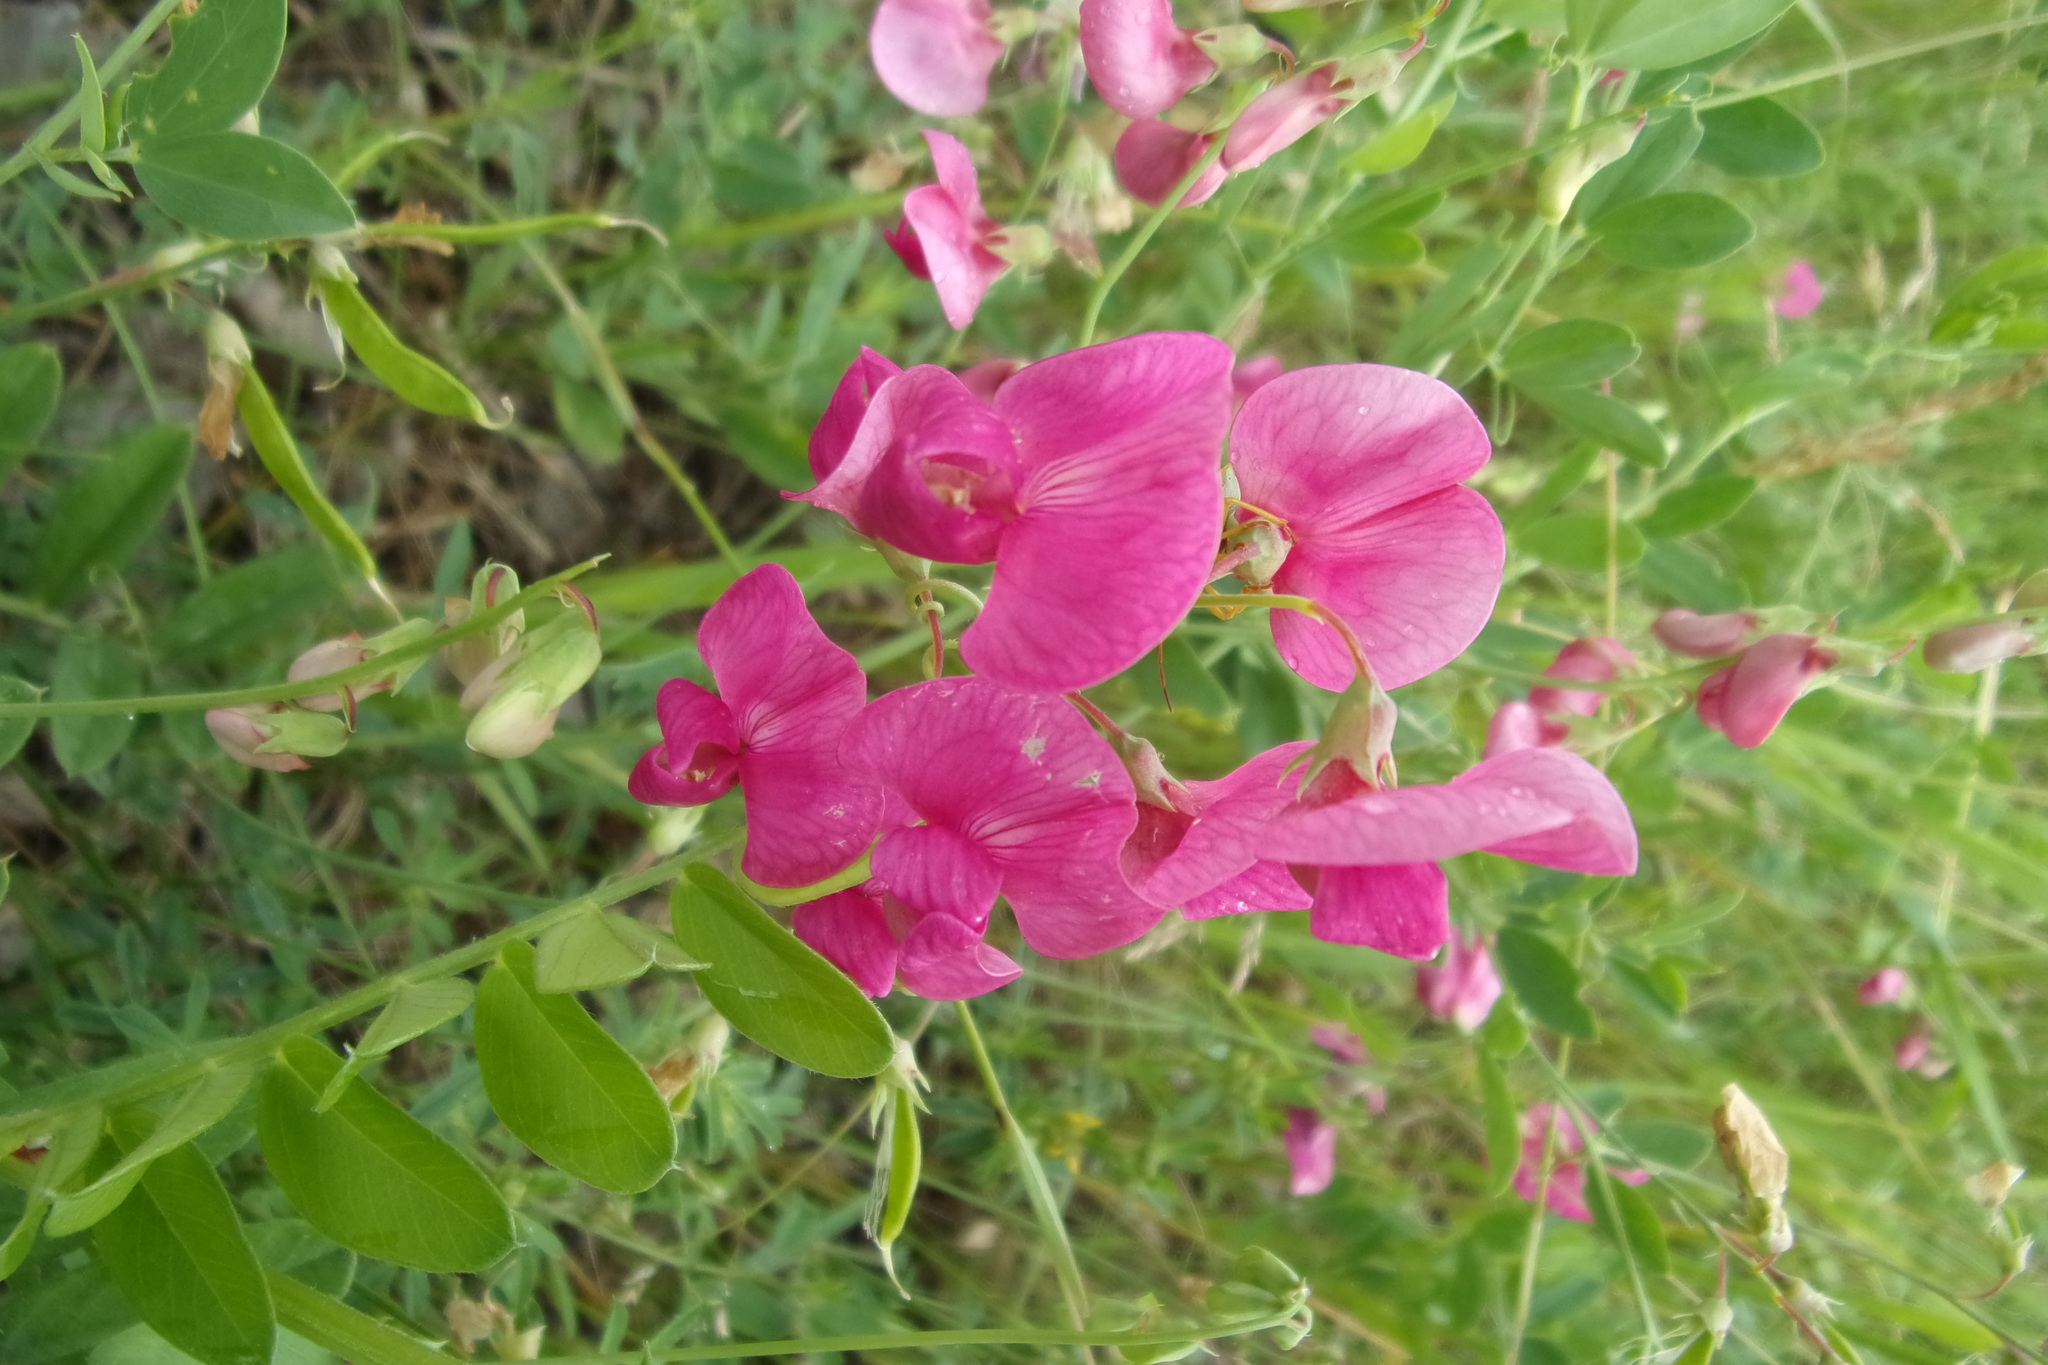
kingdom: Plantae
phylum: Tracheophyta
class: Magnoliopsida
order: Fabales
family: Fabaceae
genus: Lathyrus
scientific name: Lathyrus tuberosus
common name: Tuberous pea
